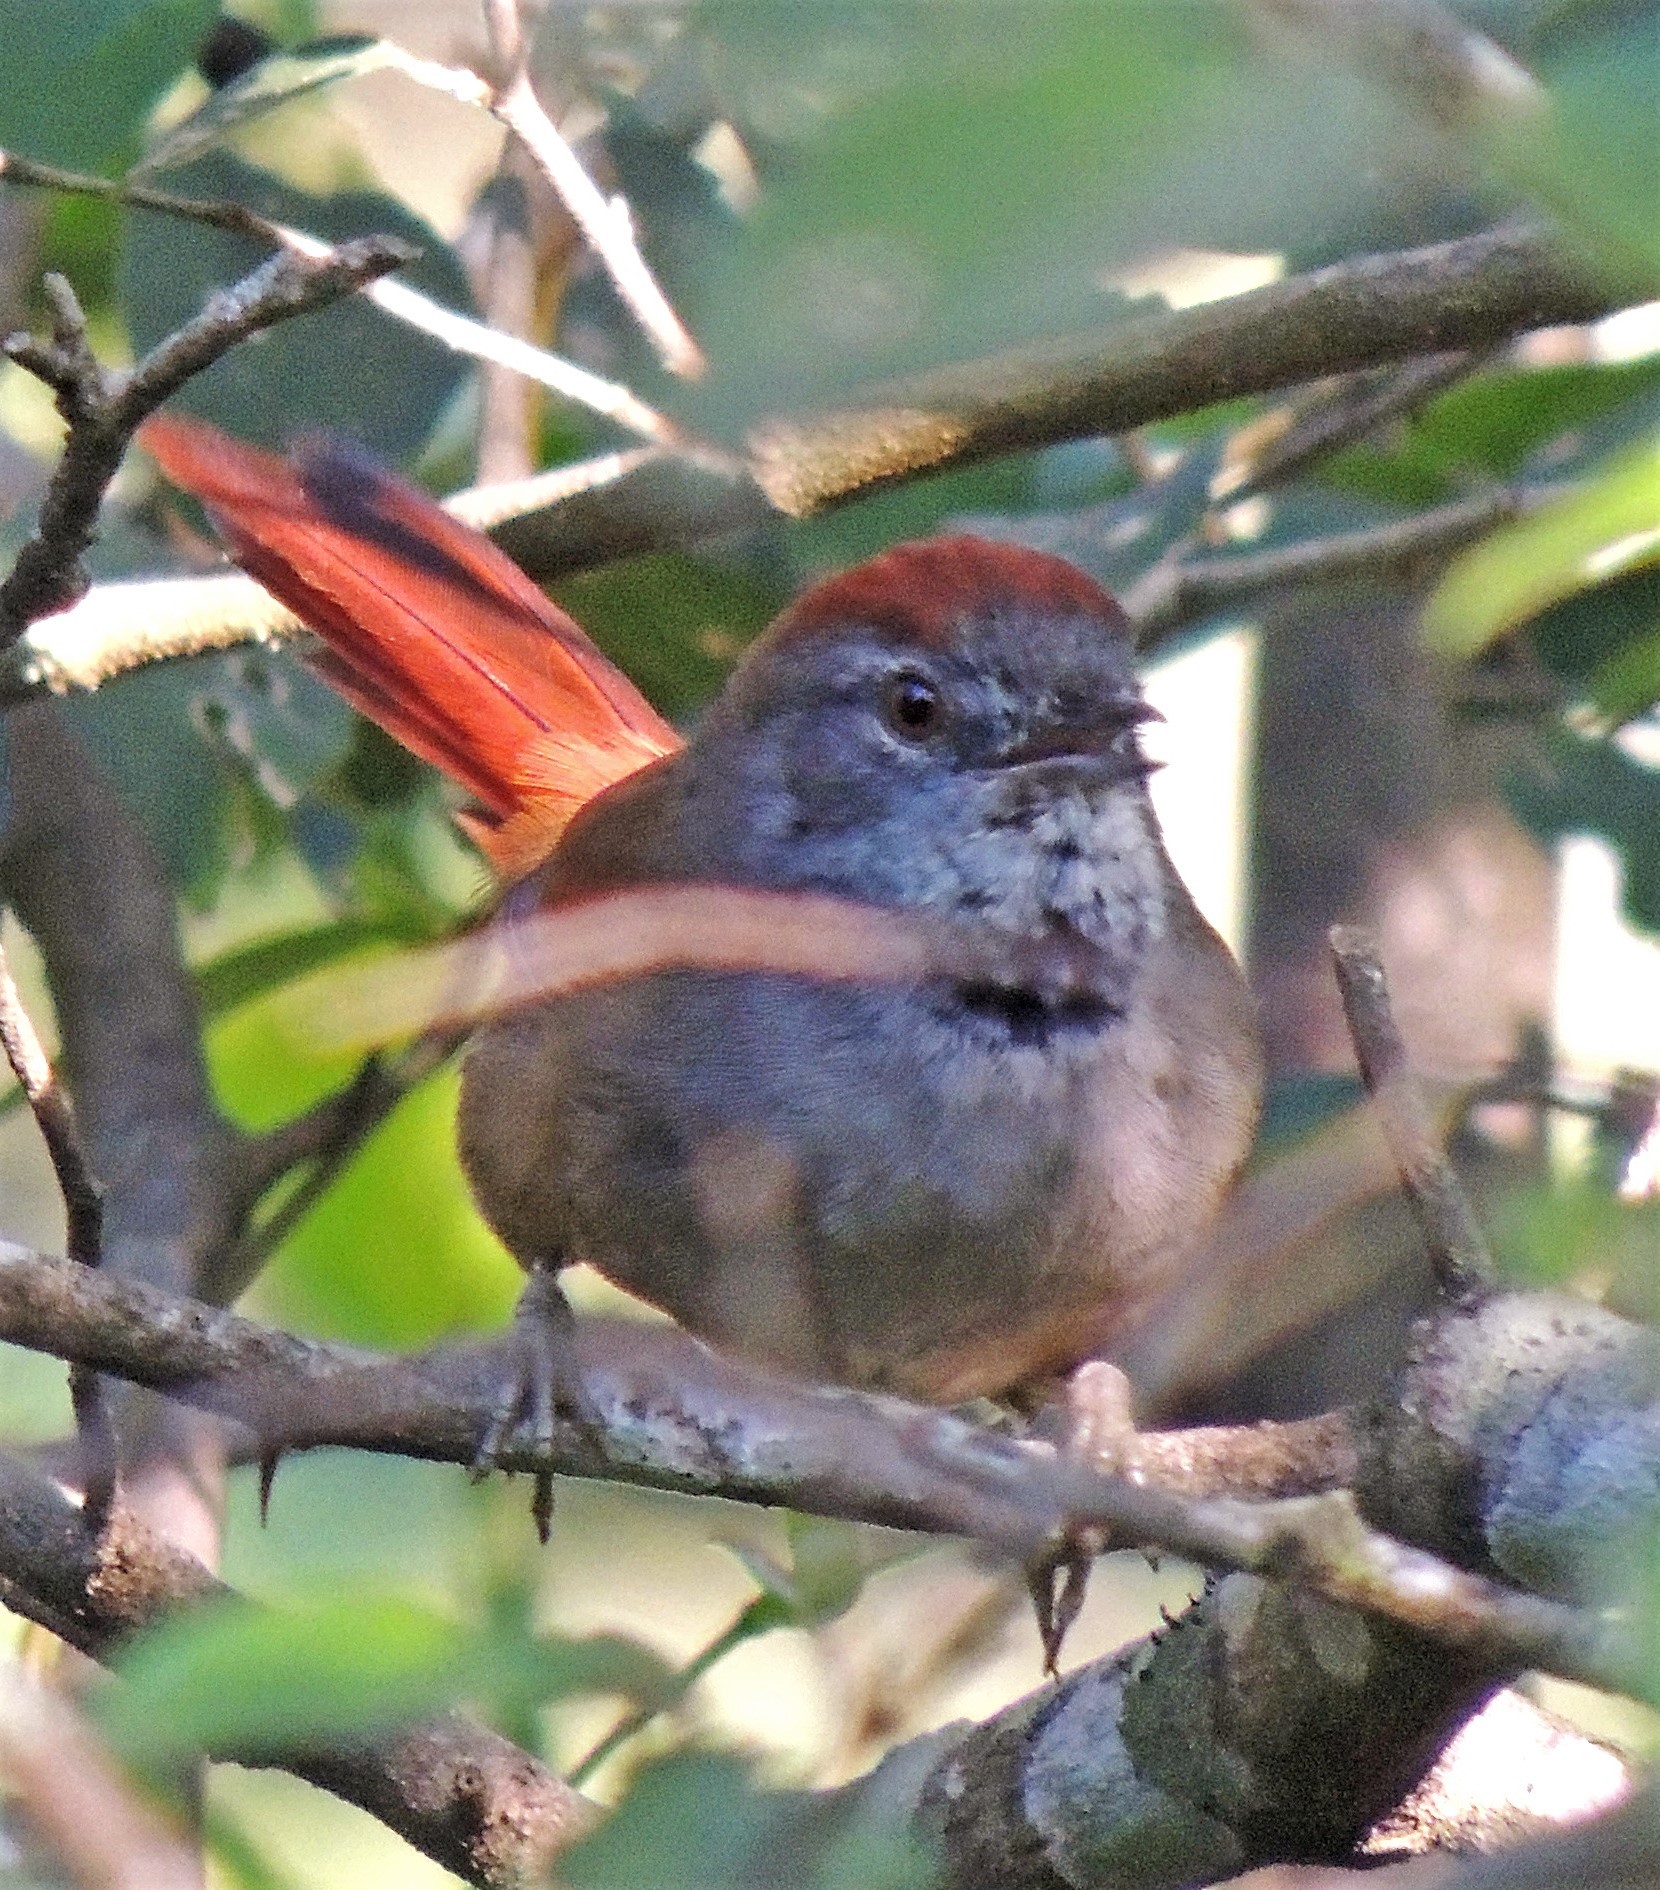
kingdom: Animalia
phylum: Chordata
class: Aves
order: Passeriformes
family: Furnariidae
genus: Synallaxis
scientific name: Synallaxis frontalis
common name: Sooty-fronted spinetail
